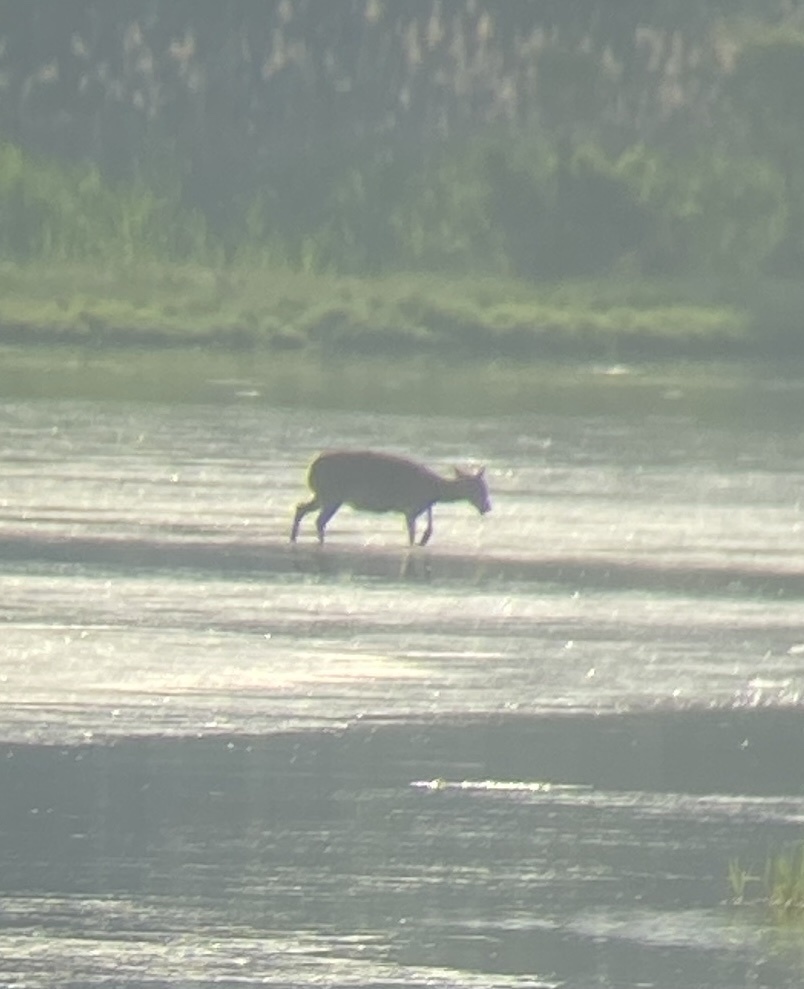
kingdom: Animalia
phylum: Chordata
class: Mammalia
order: Artiodactyla
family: Cervidae
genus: Cervus
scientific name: Cervus nippon
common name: Sika deer
